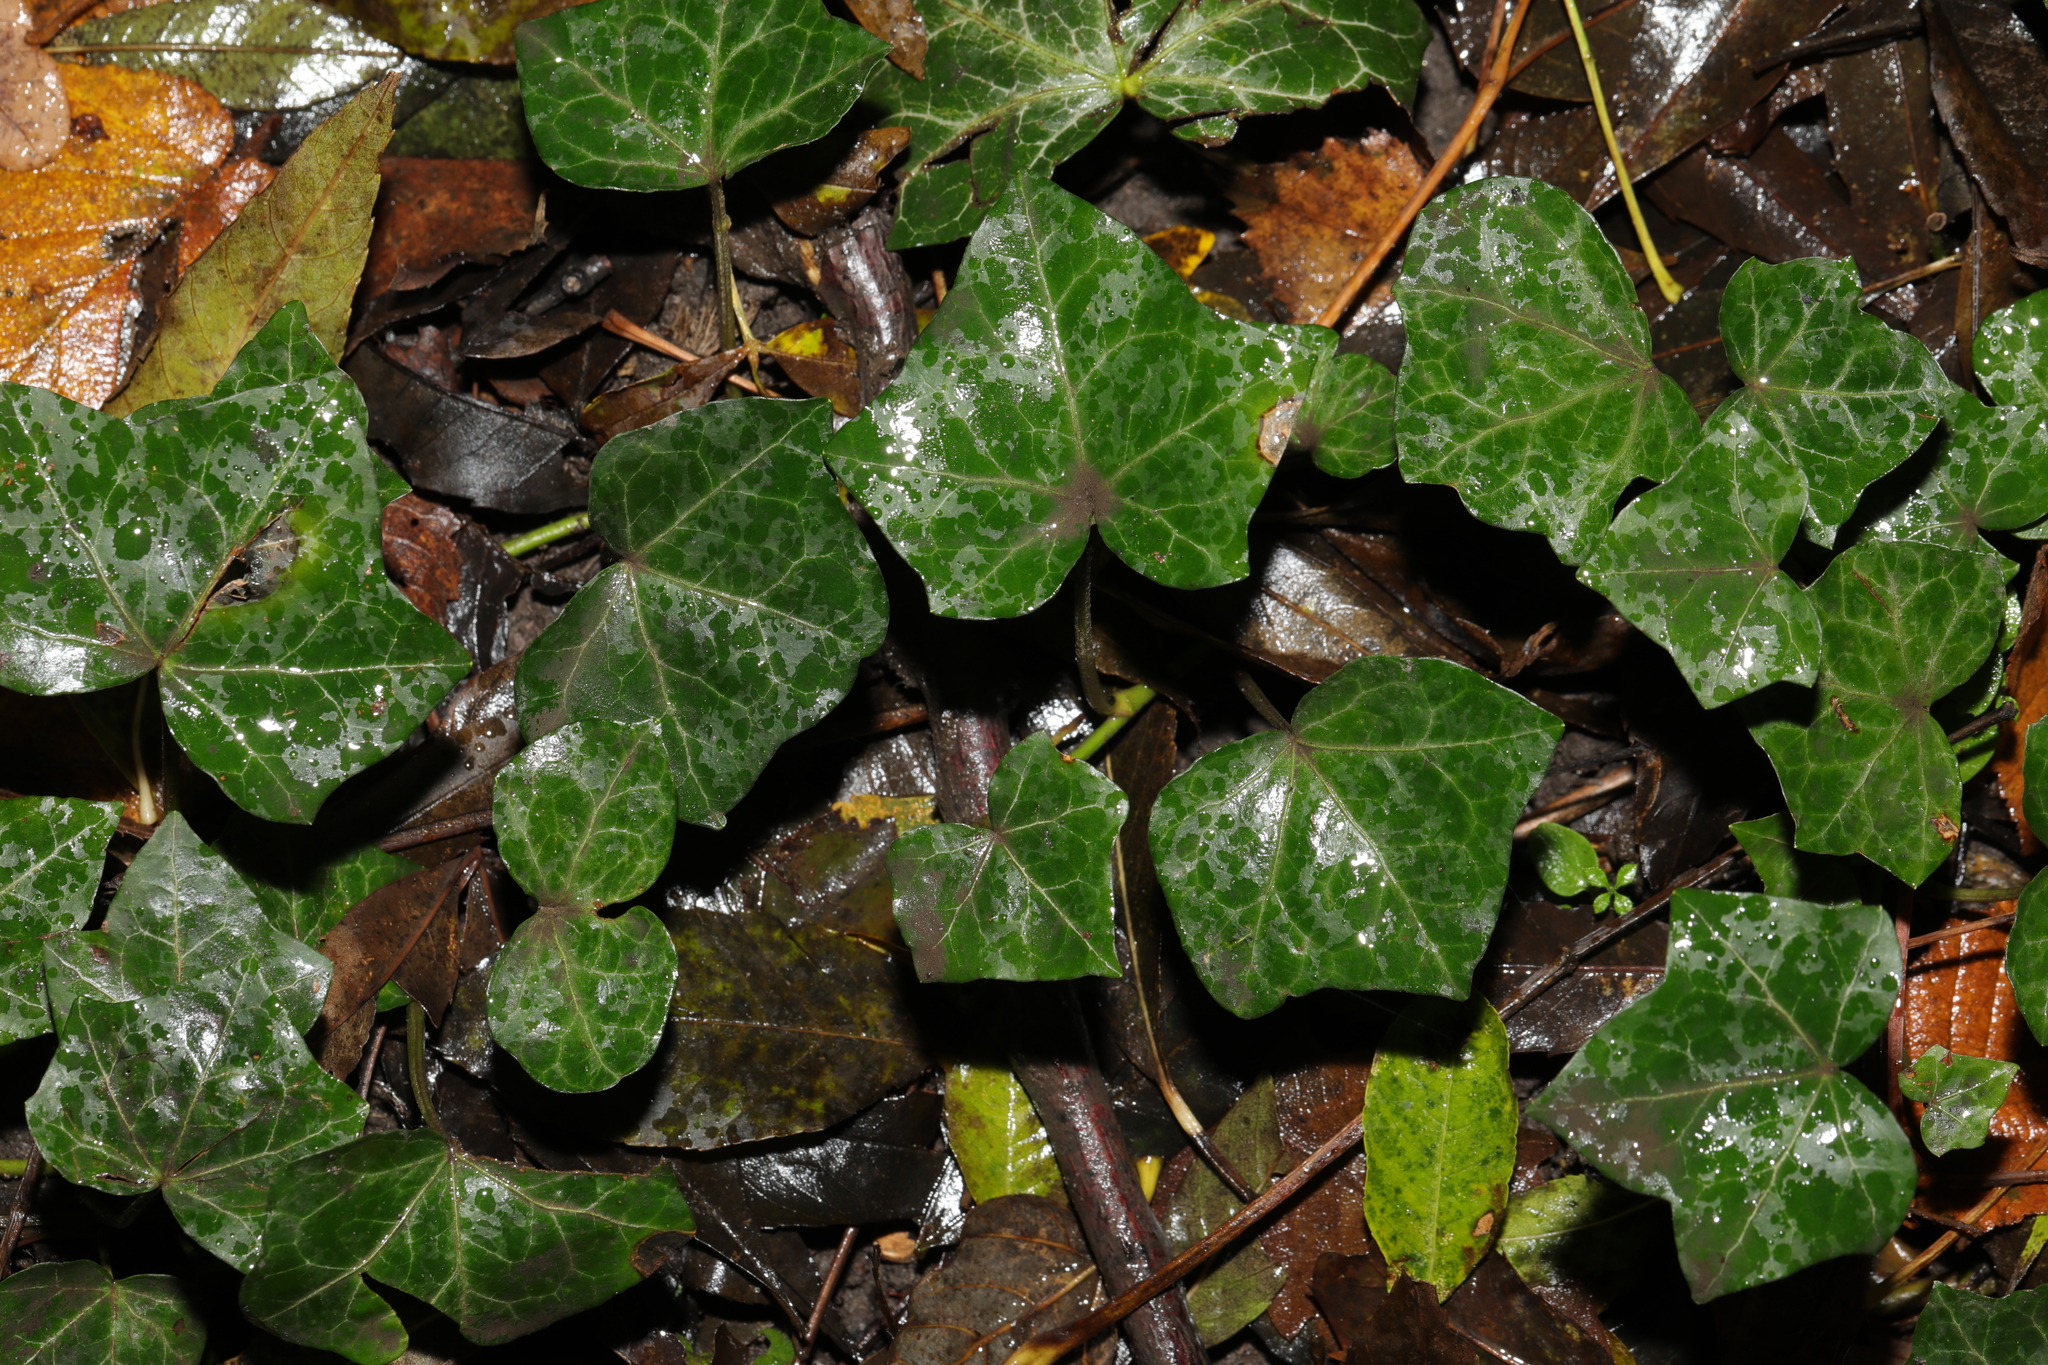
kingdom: Plantae
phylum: Tracheophyta
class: Magnoliopsida
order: Apiales
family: Araliaceae
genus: Hedera
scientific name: Hedera helix
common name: Ivy
